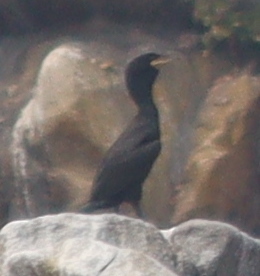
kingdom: Animalia
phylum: Chordata
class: Aves
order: Suliformes
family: Phalacrocoracidae
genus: Phalacrocorax
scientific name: Phalacrocorax aristotelis
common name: European shag
